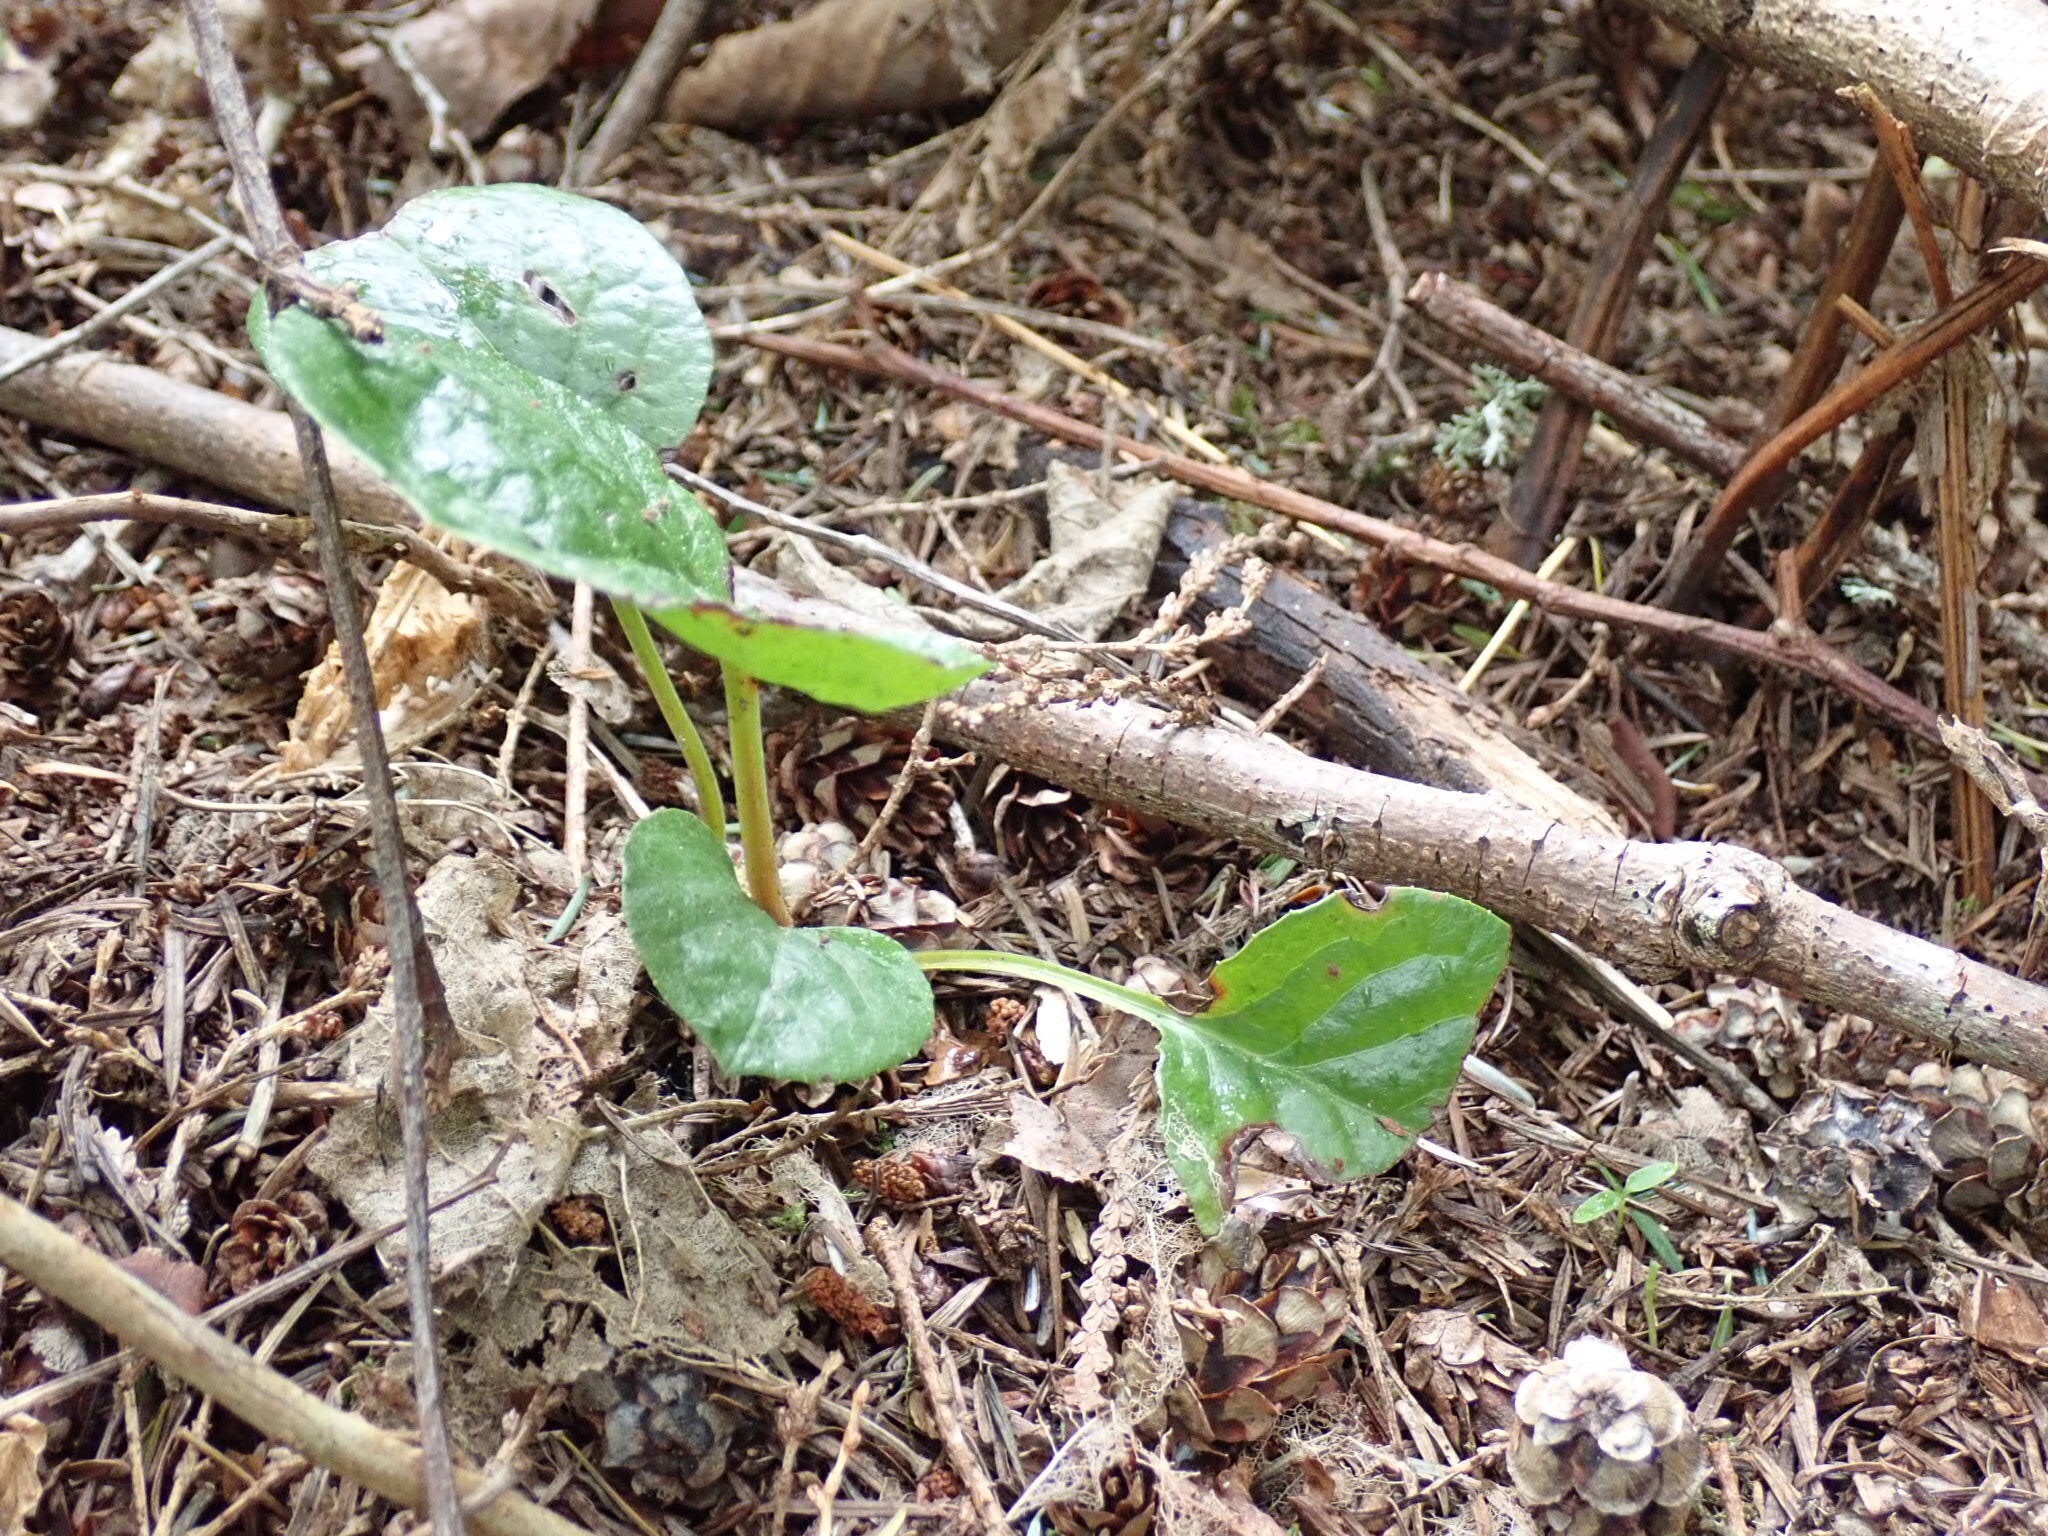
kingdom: Plantae
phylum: Tracheophyta
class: Magnoliopsida
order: Ericales
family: Ericaceae
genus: Pyrola
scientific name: Pyrola asarifolia
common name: Bog wintergreen
